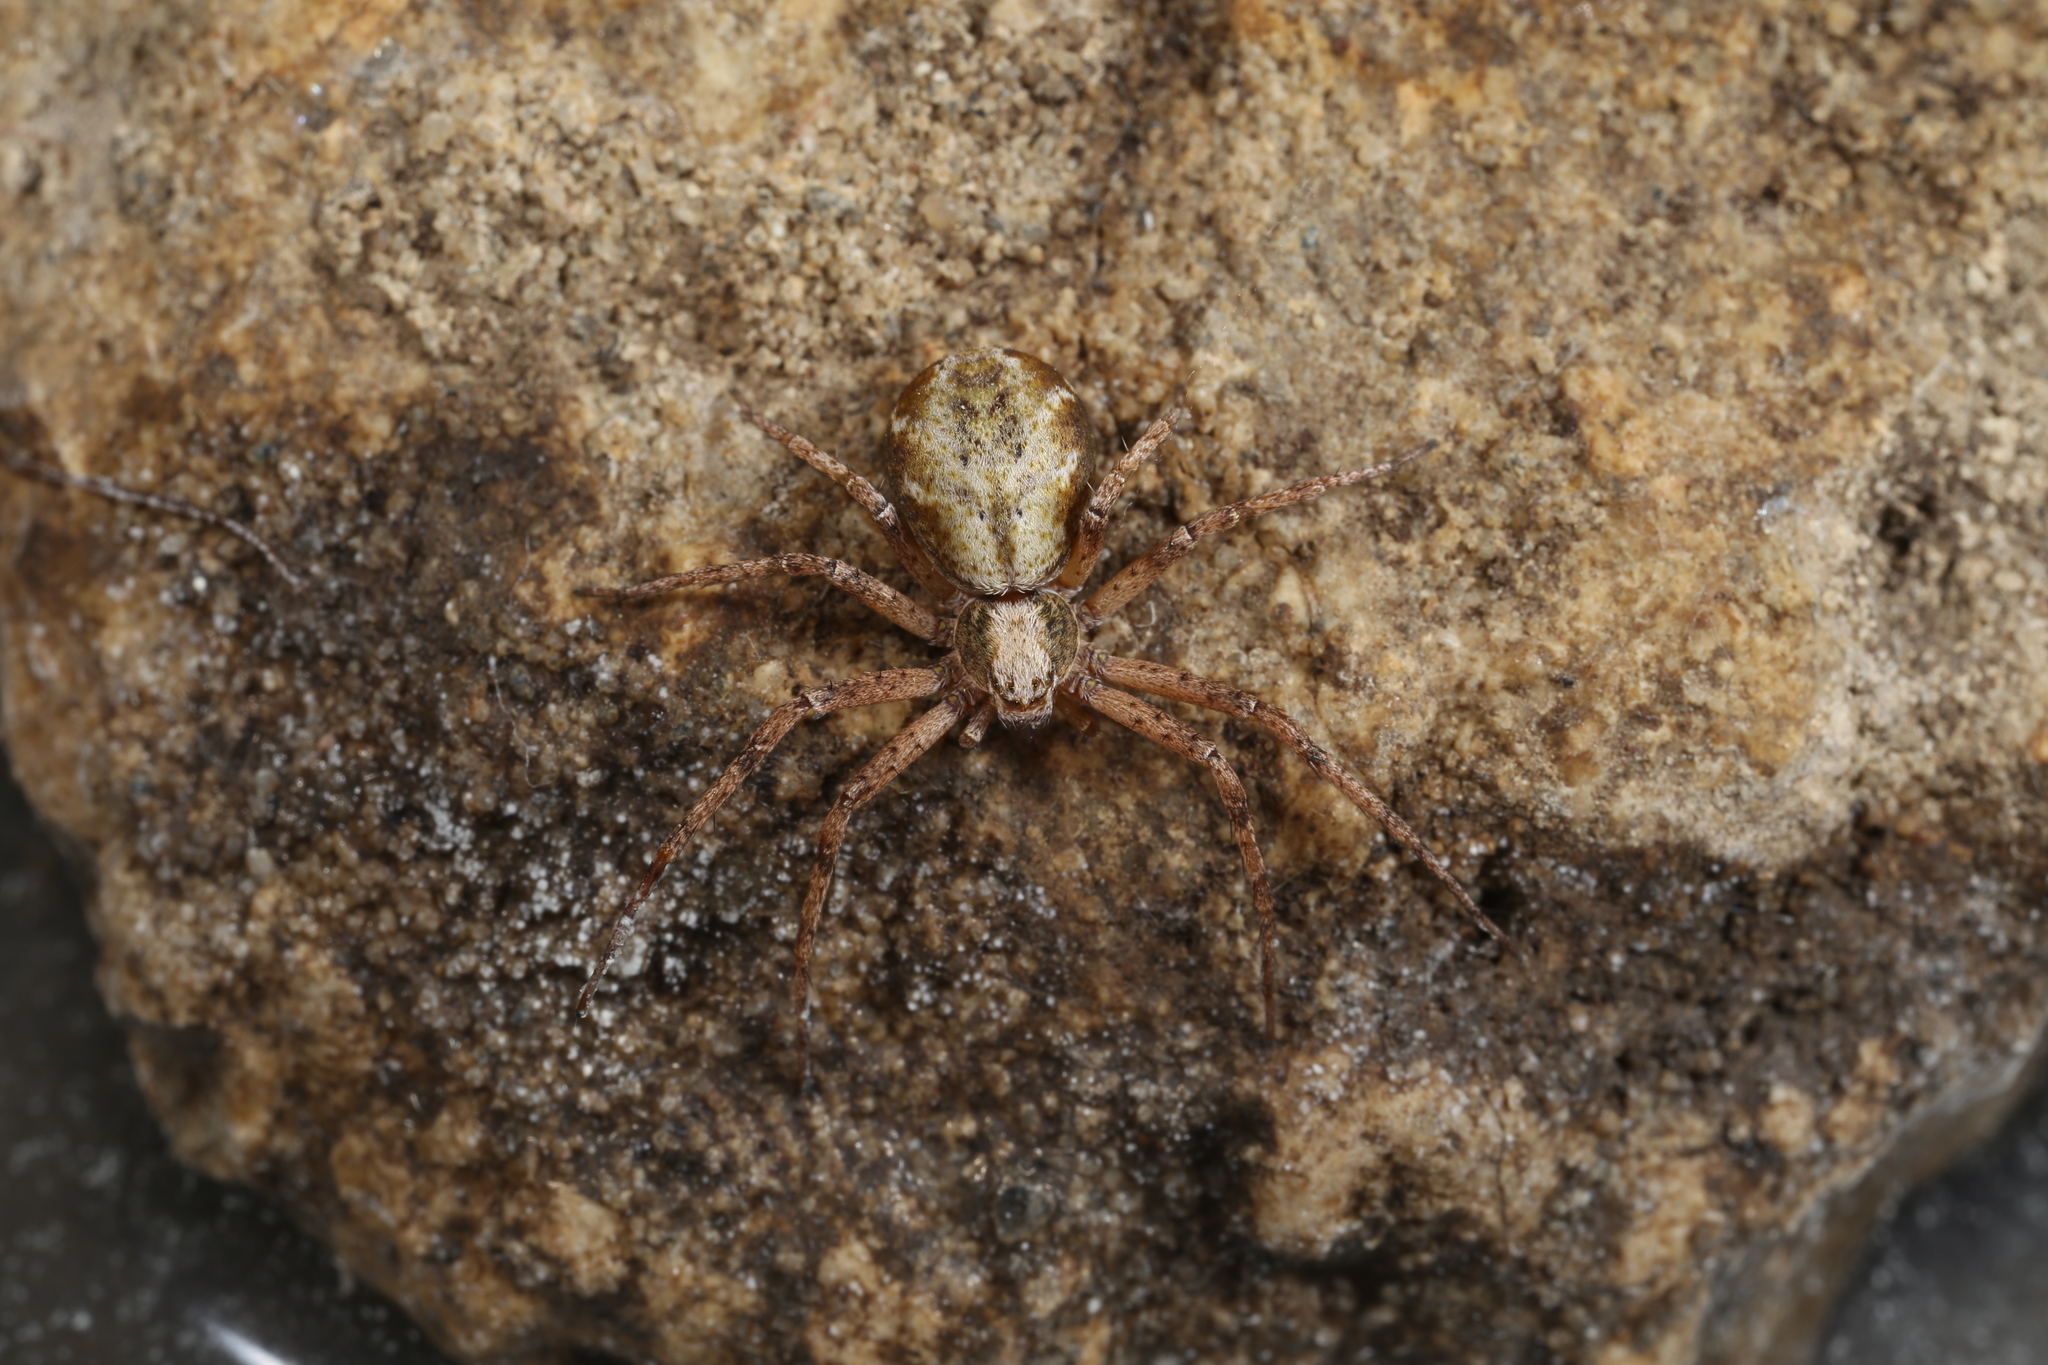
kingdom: Animalia
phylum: Arthropoda
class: Arachnida
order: Araneae
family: Philodromidae
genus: Philodromus
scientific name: Philodromus aureolus
